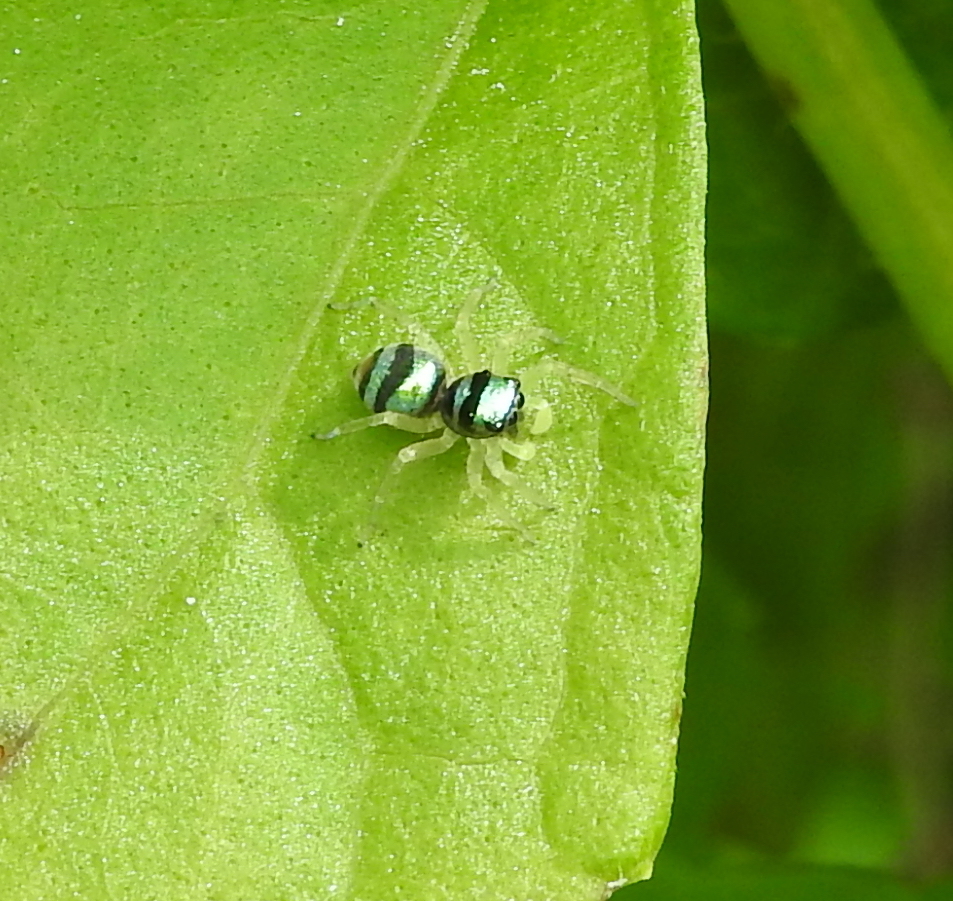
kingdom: Animalia
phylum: Arthropoda
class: Arachnida
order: Araneae
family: Salticidae
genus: Phintella
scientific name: Phintella vittata
